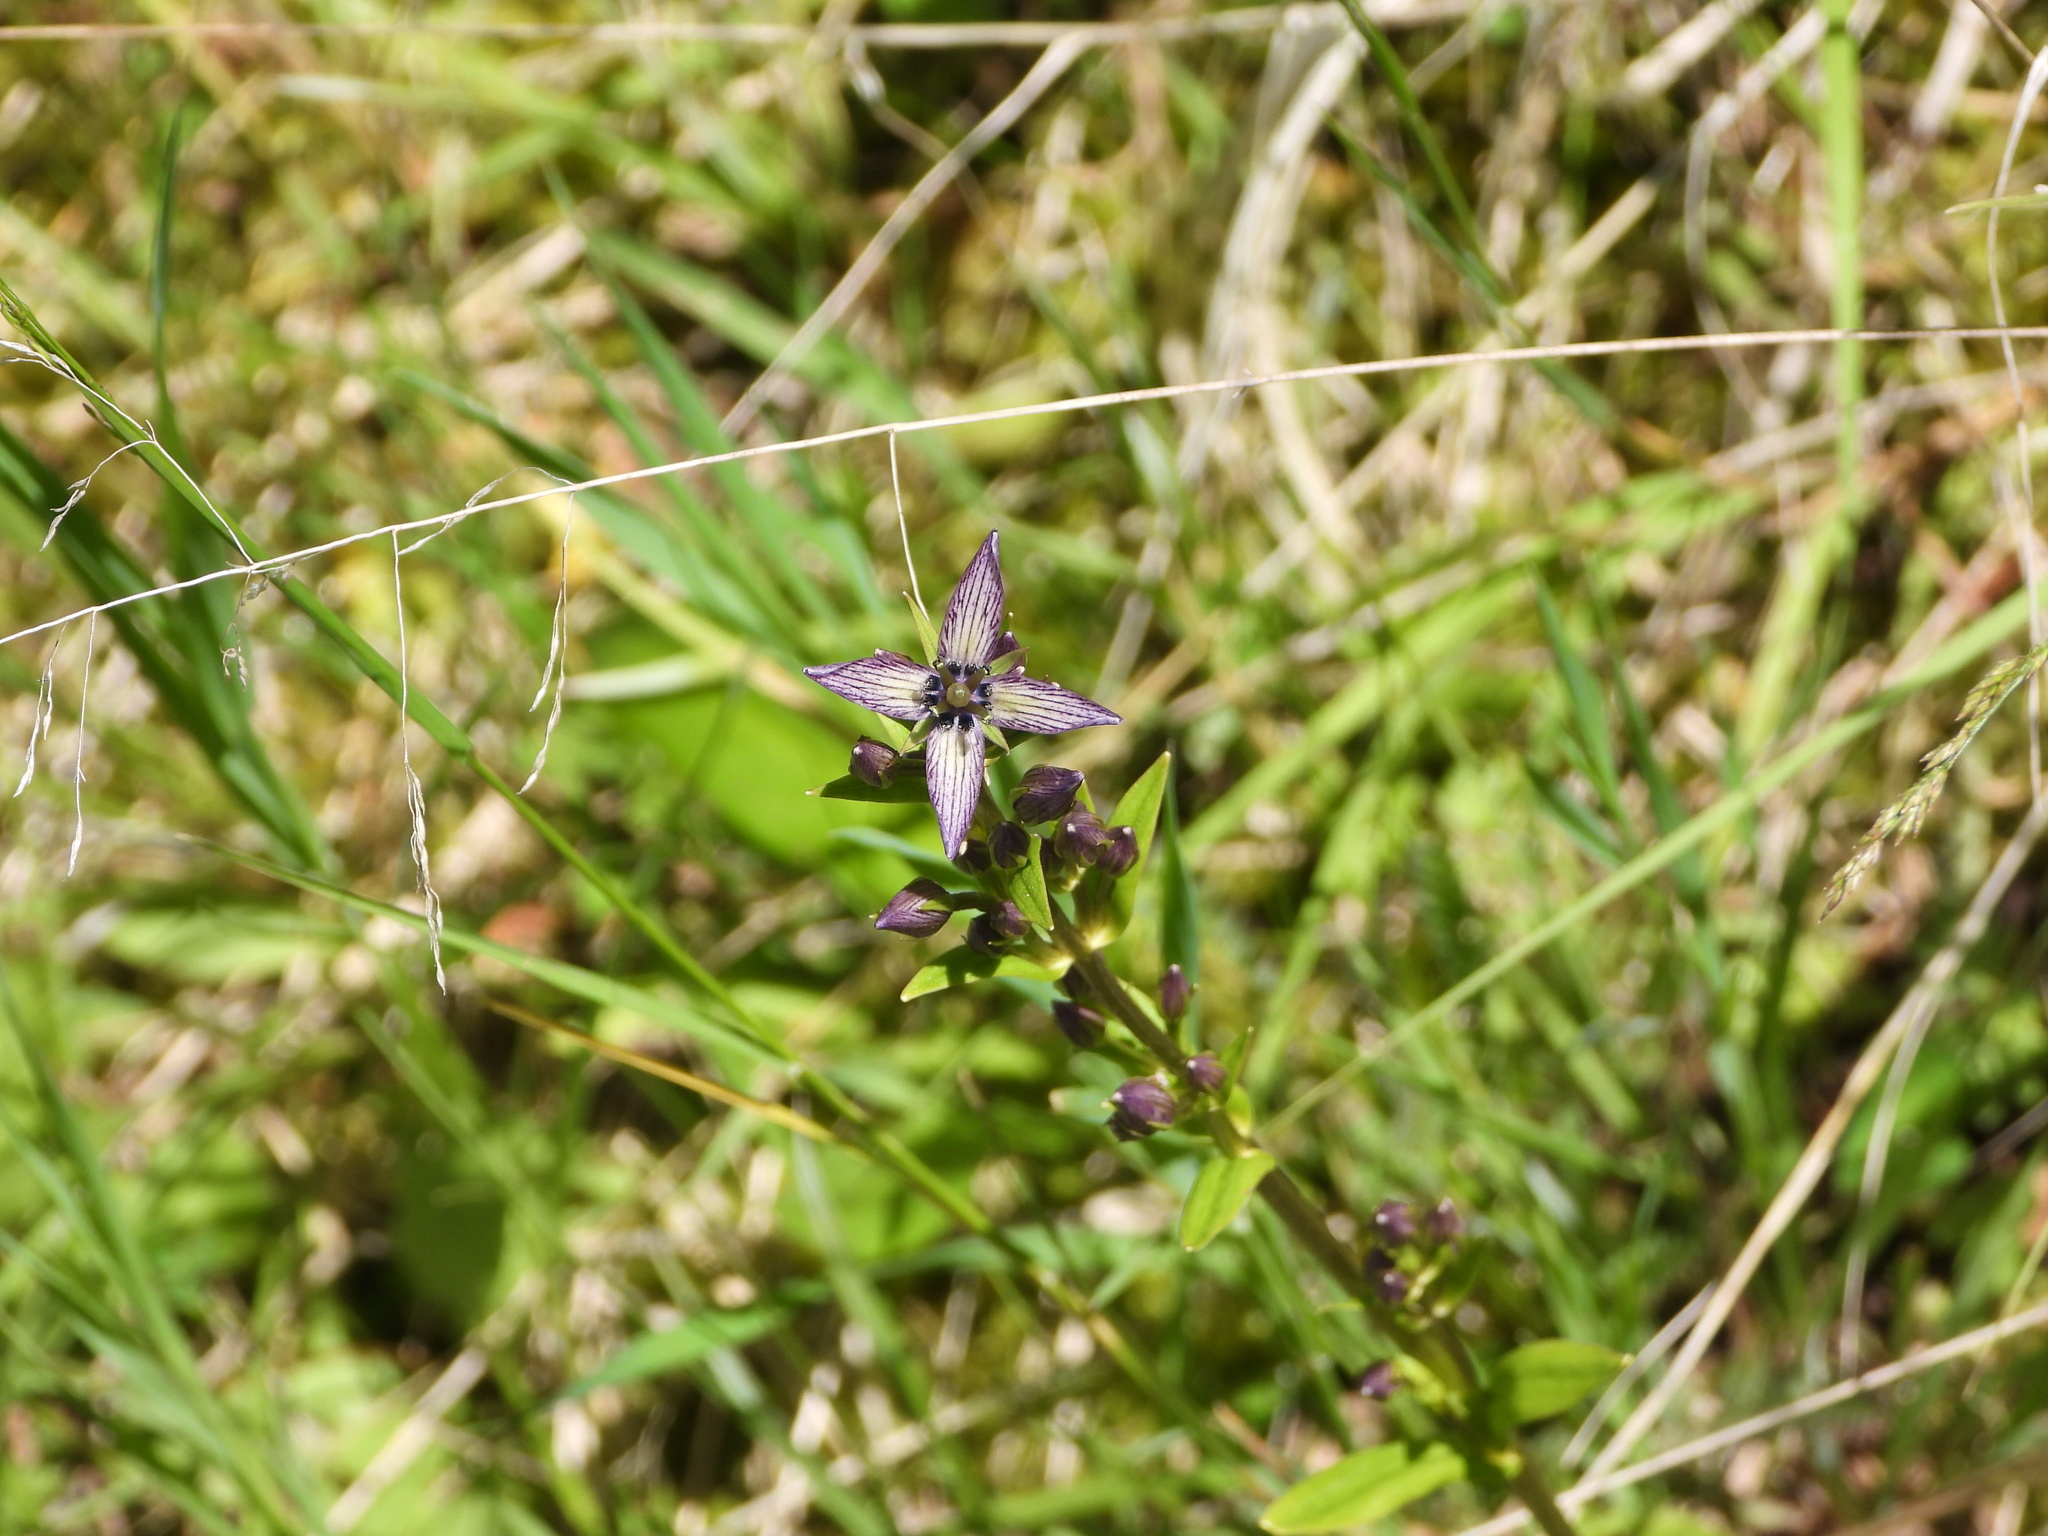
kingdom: Plantae
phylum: Tracheophyta
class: Magnoliopsida
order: Gentianales
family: Gentianaceae
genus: Swertia
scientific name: Swertia perennis
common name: Alpine bog swertia
